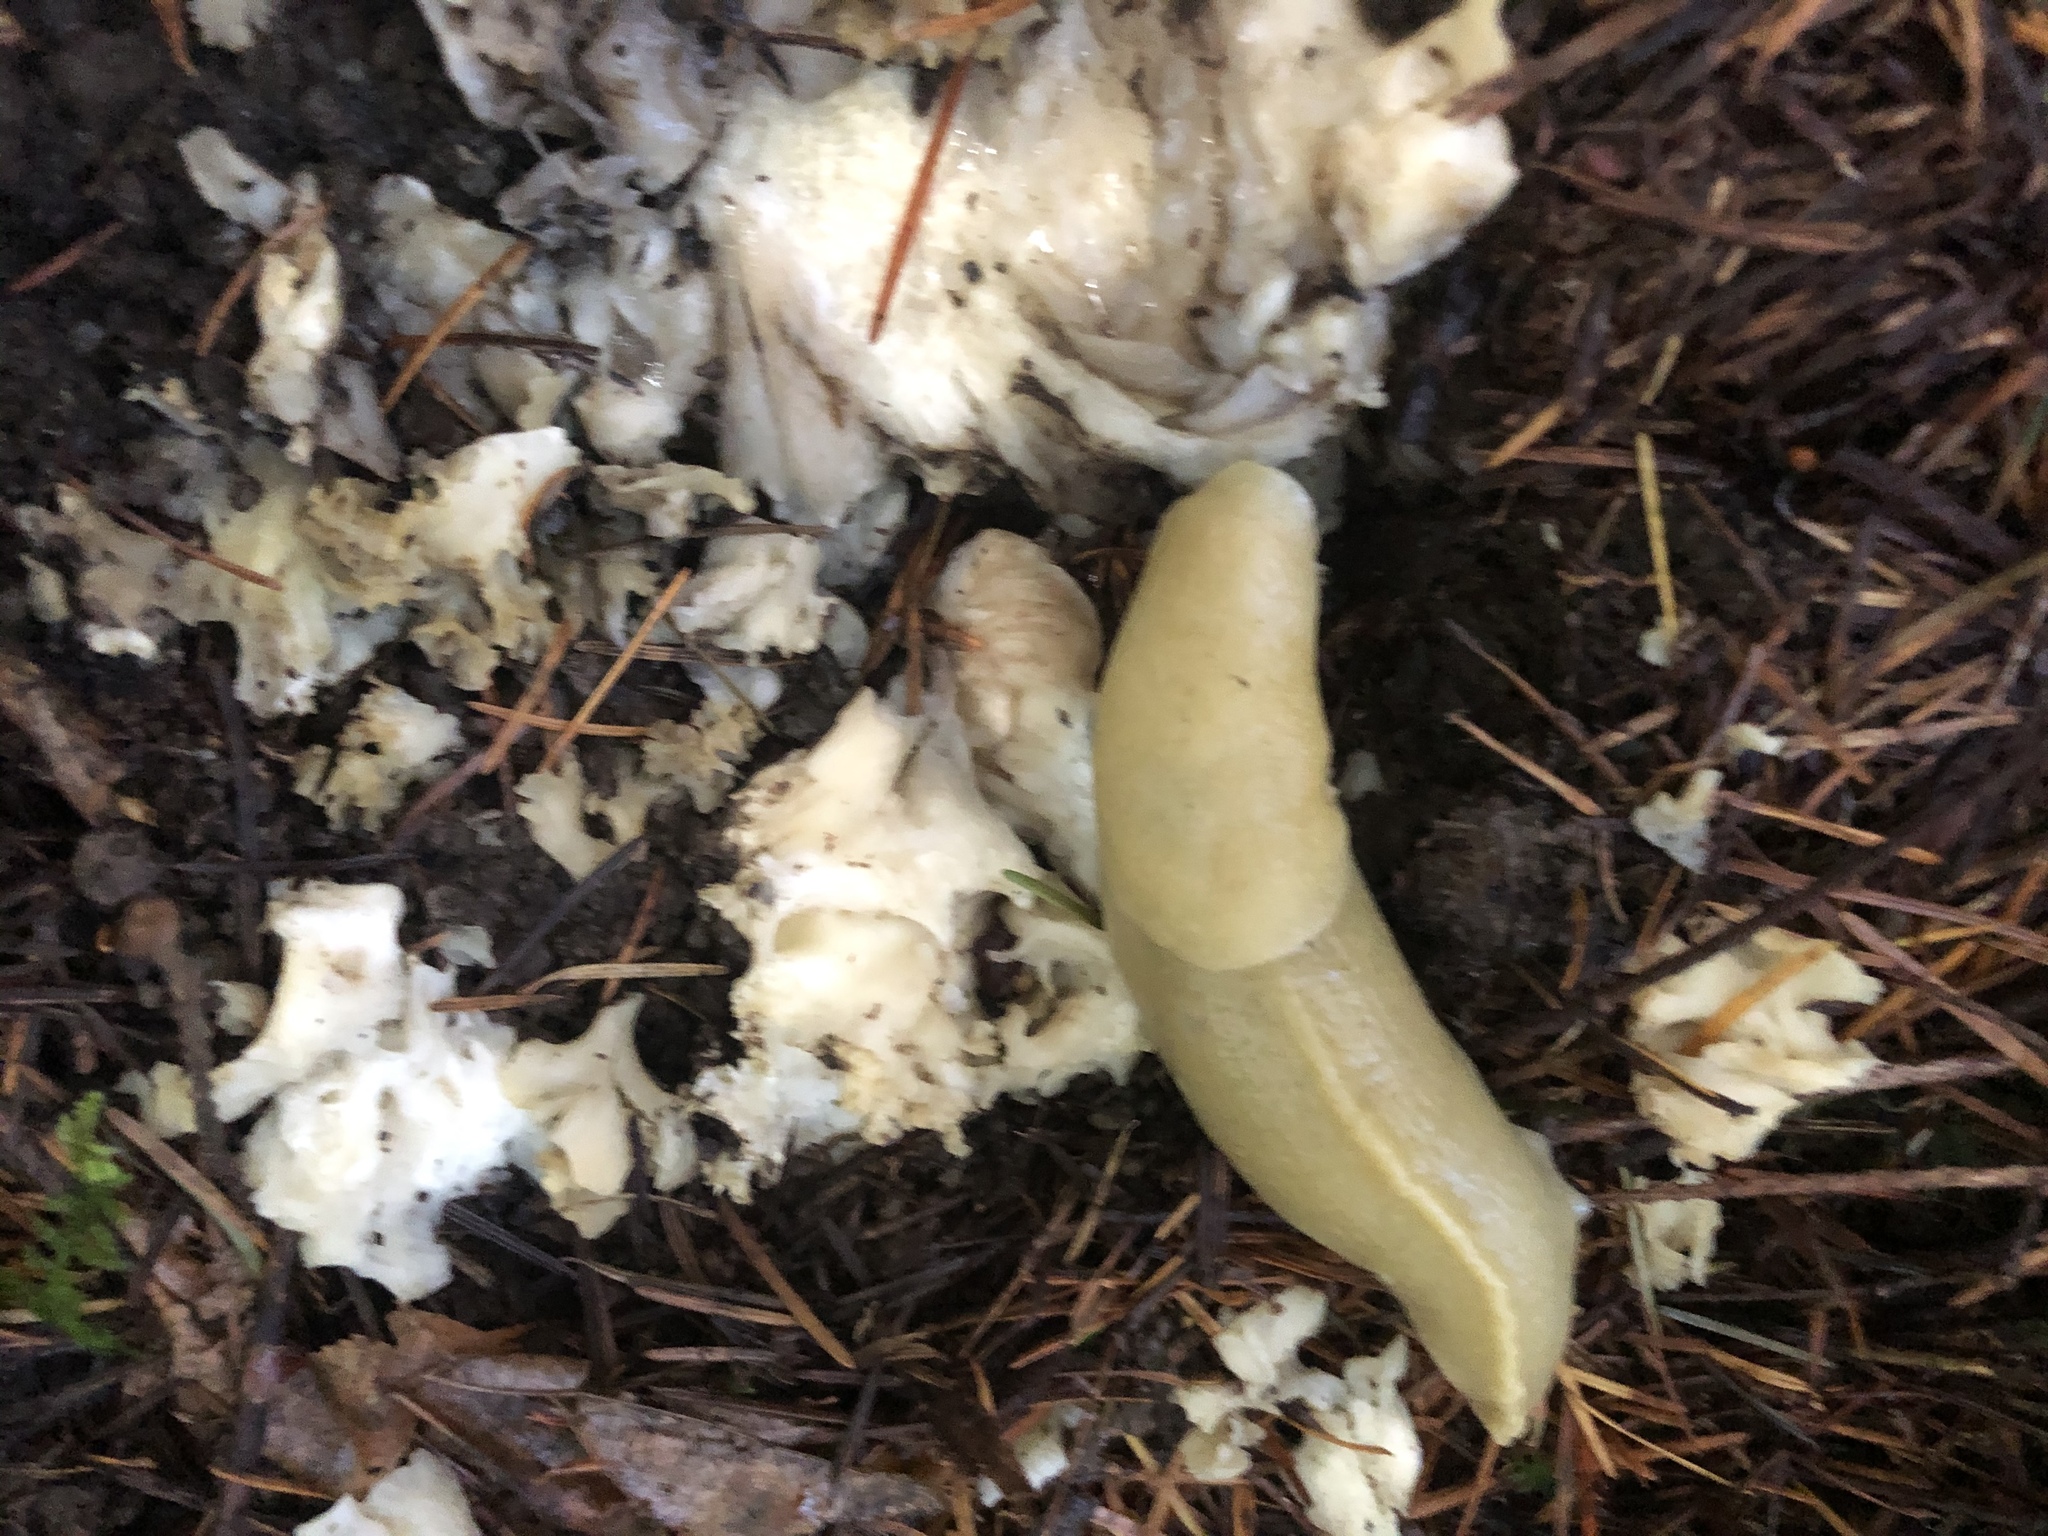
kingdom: Animalia
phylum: Mollusca
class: Gastropoda
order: Stylommatophora
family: Ariolimacidae
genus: Ariolimax
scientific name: Ariolimax columbianus
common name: Pacific banana slug
